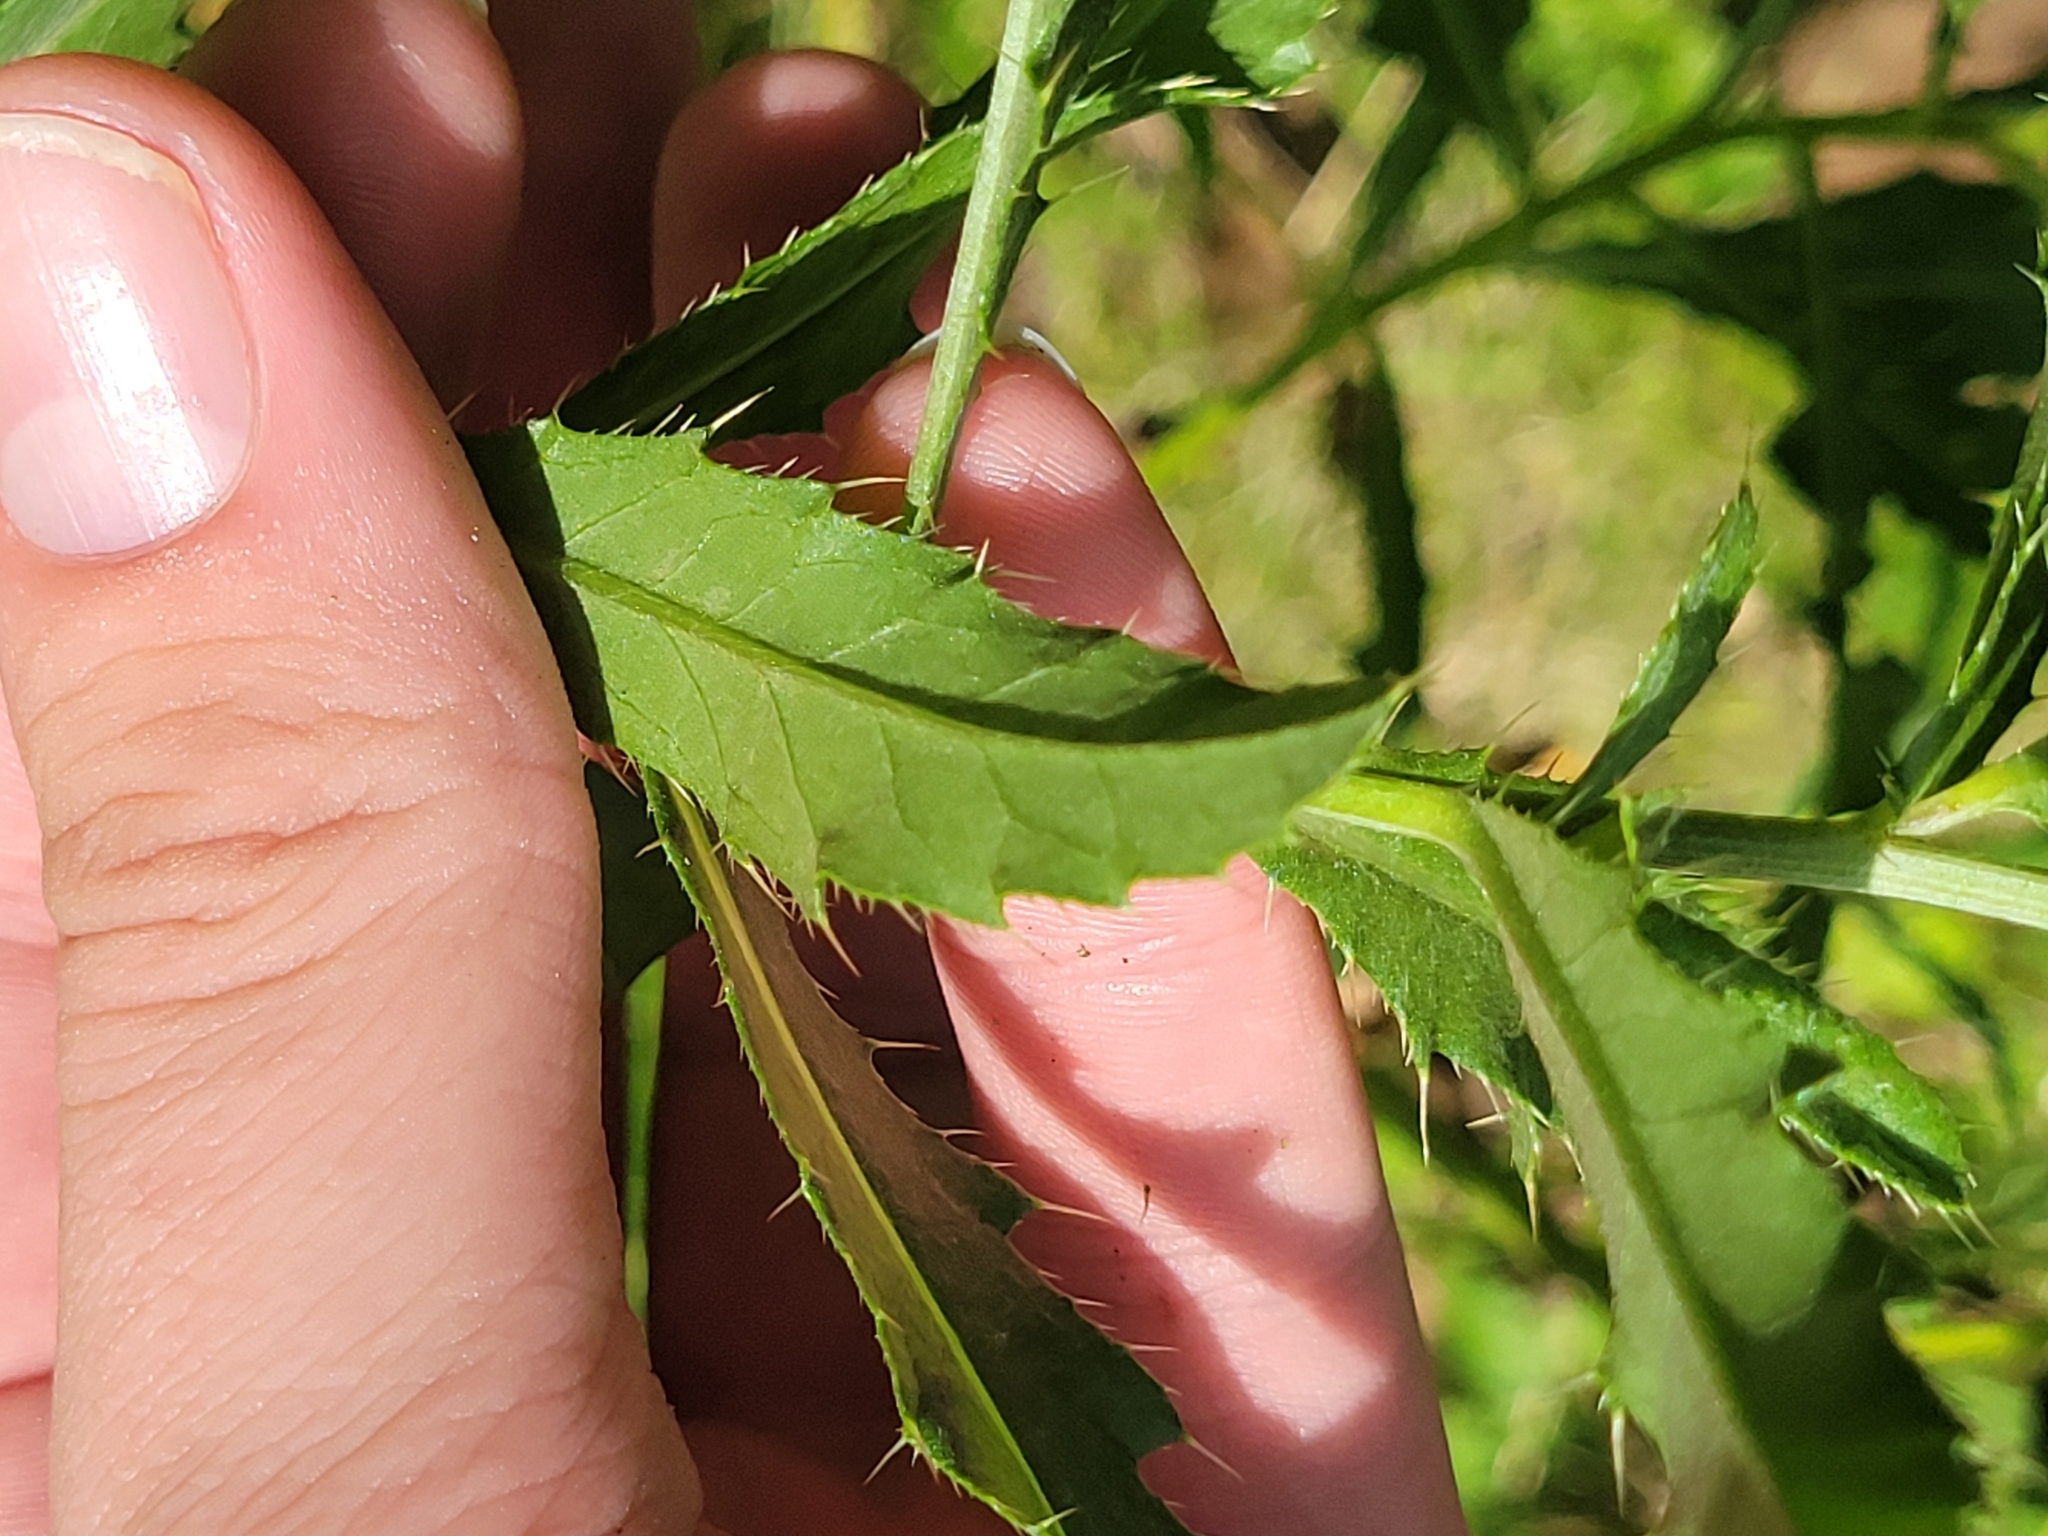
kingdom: Plantae
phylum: Tracheophyta
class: Magnoliopsida
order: Asterales
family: Asteraceae
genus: Cirsium
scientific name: Cirsium arvense
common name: Creeping thistle
